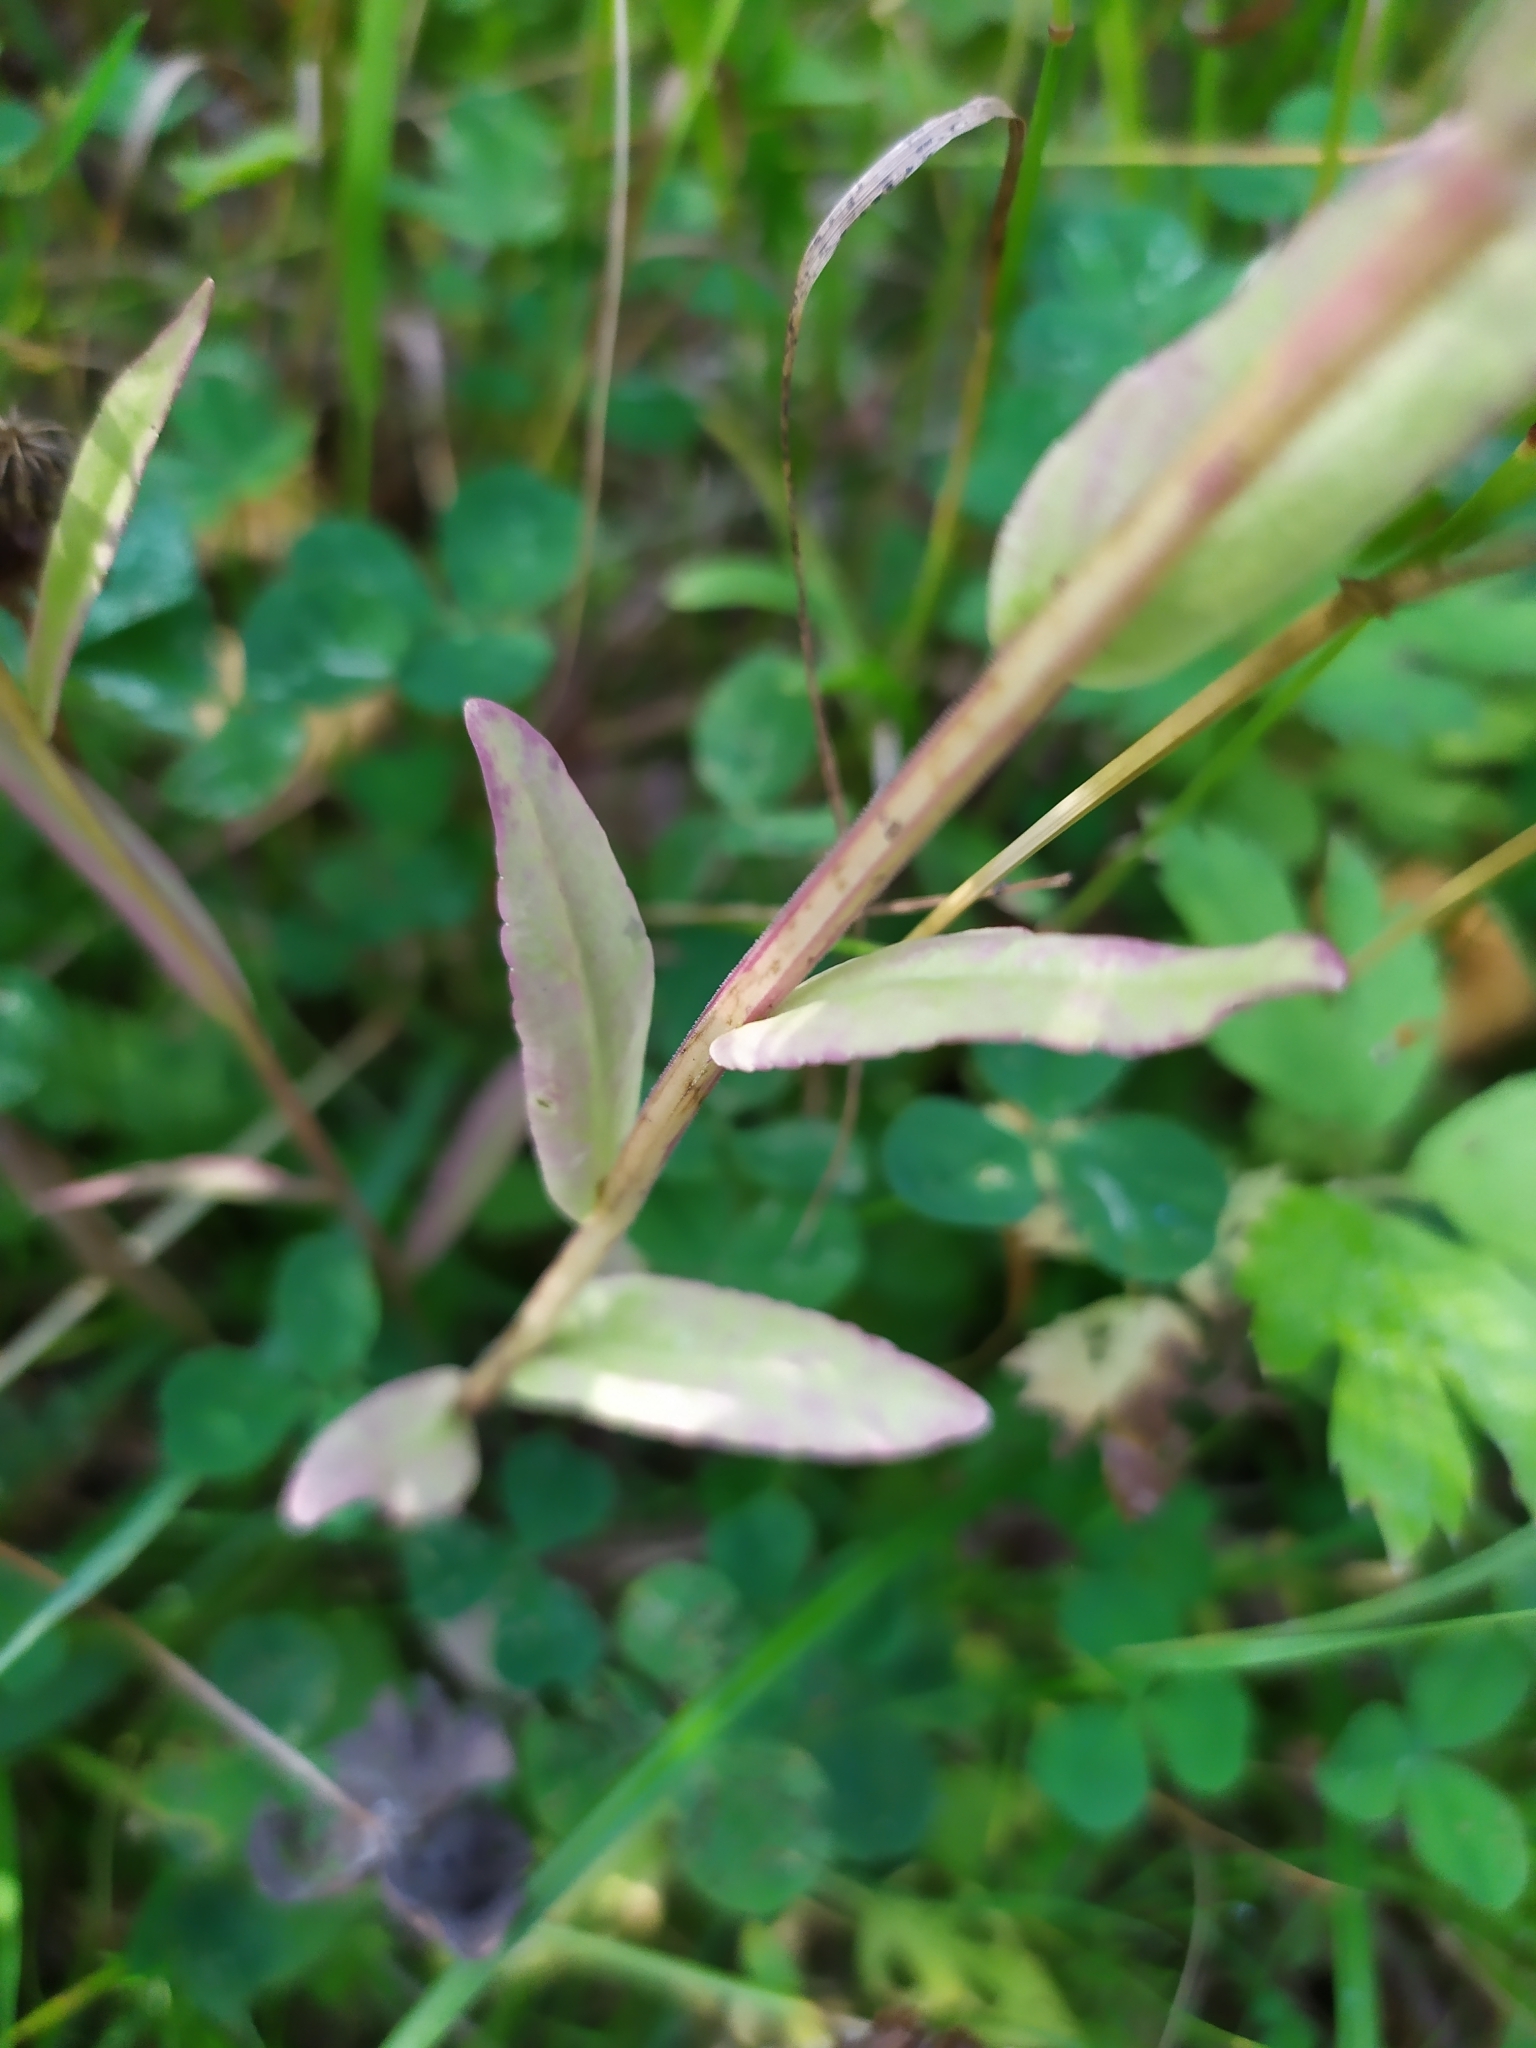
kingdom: Plantae
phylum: Tracheophyta
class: Magnoliopsida
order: Asterales
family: Campanulaceae
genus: Campanula
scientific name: Campanula patula
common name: Spreading bellflower
